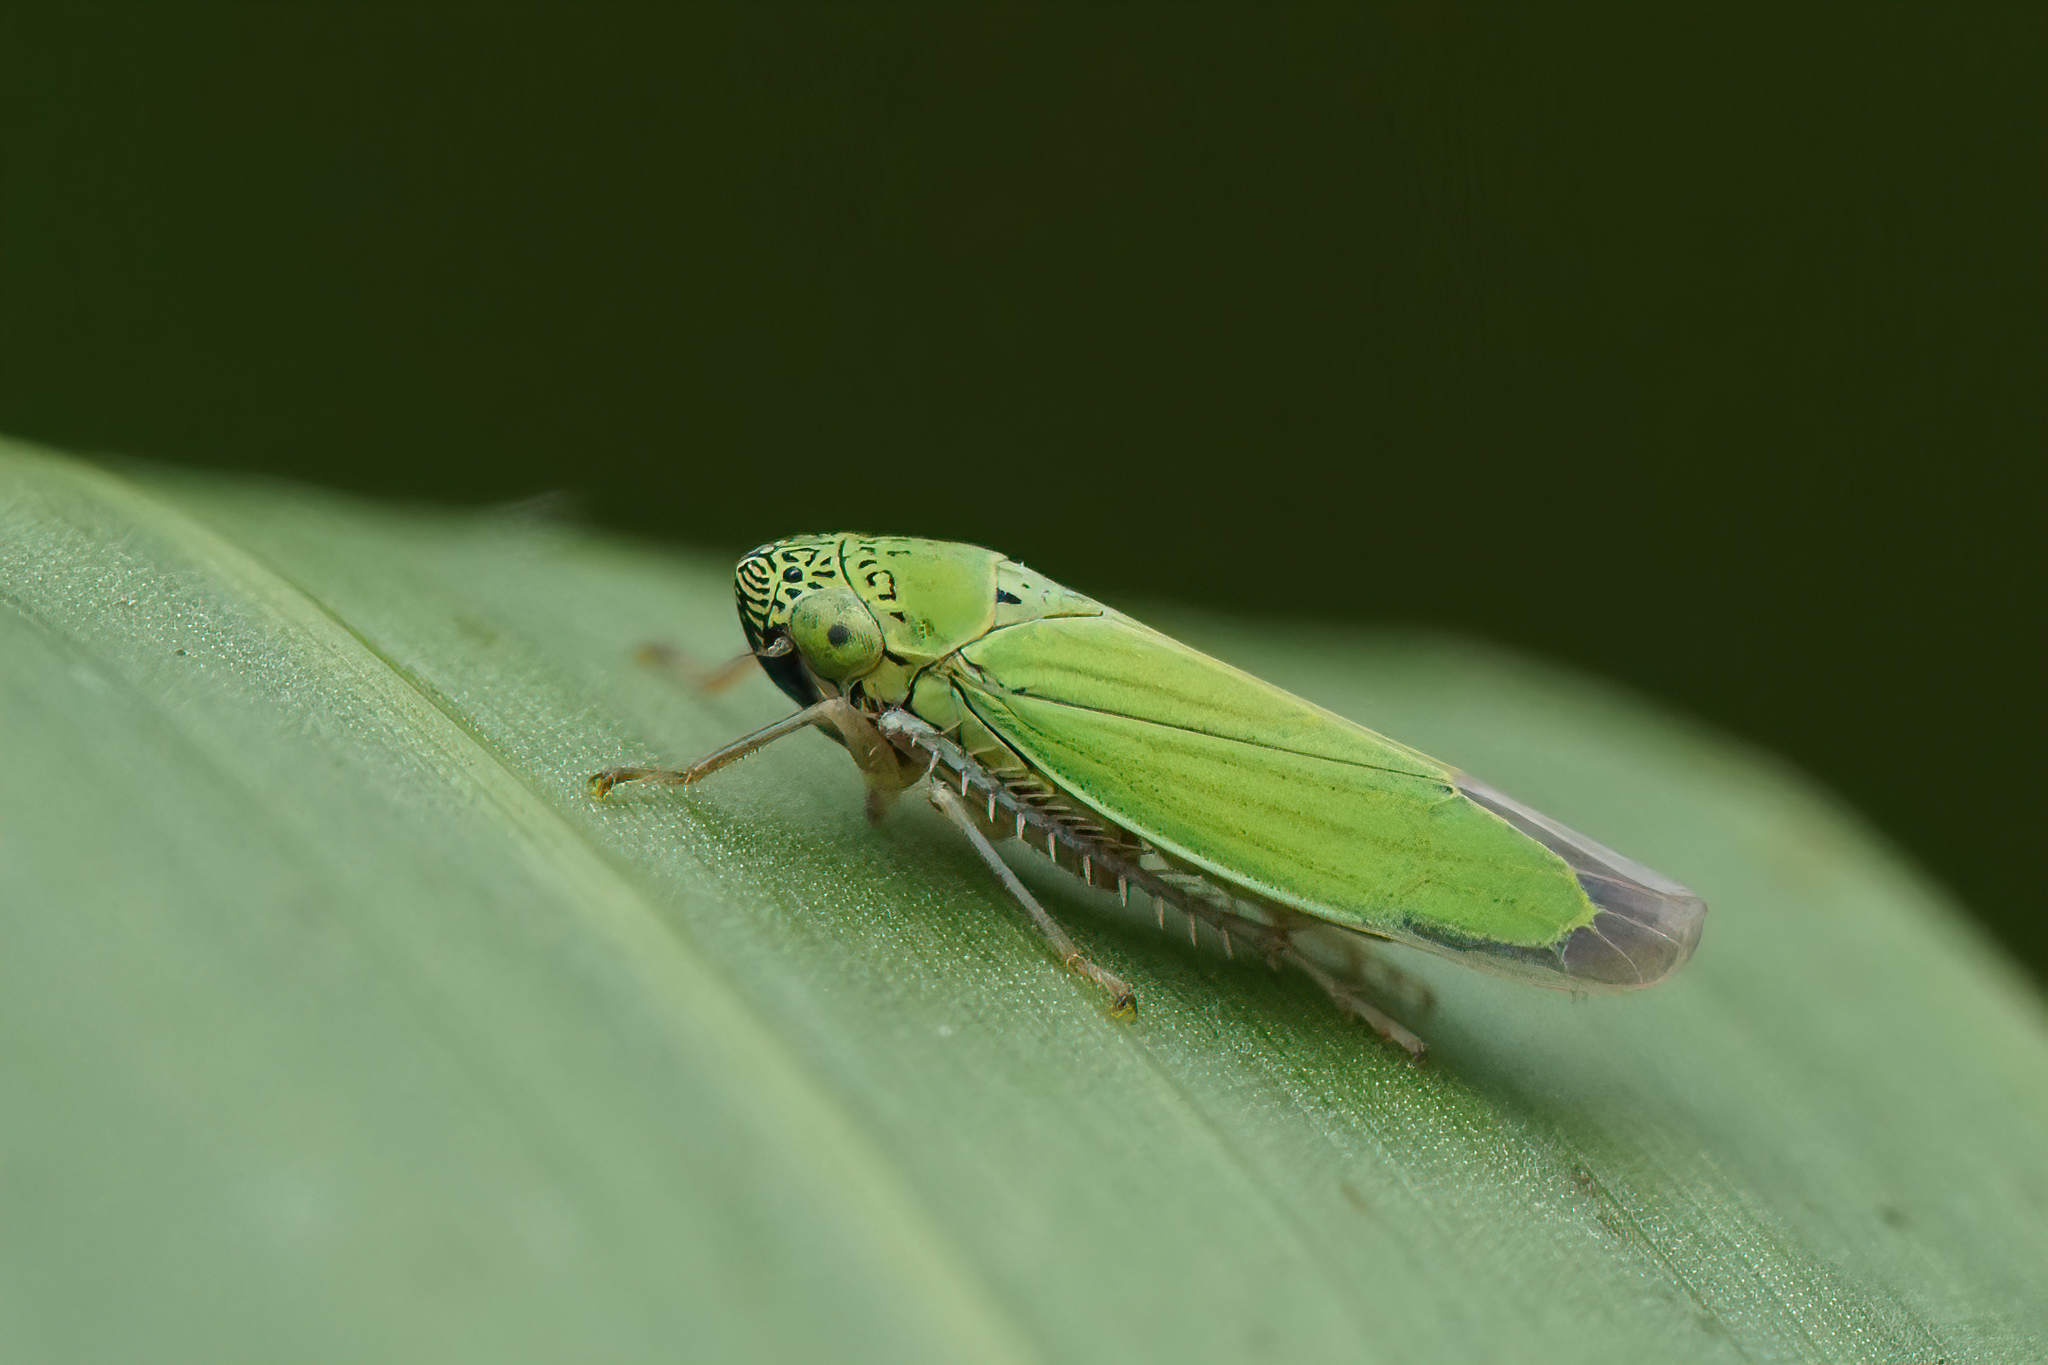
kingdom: Animalia
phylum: Arthropoda
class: Insecta
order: Hemiptera
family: Cicadellidae
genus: Hortensia
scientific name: Hortensia similis
